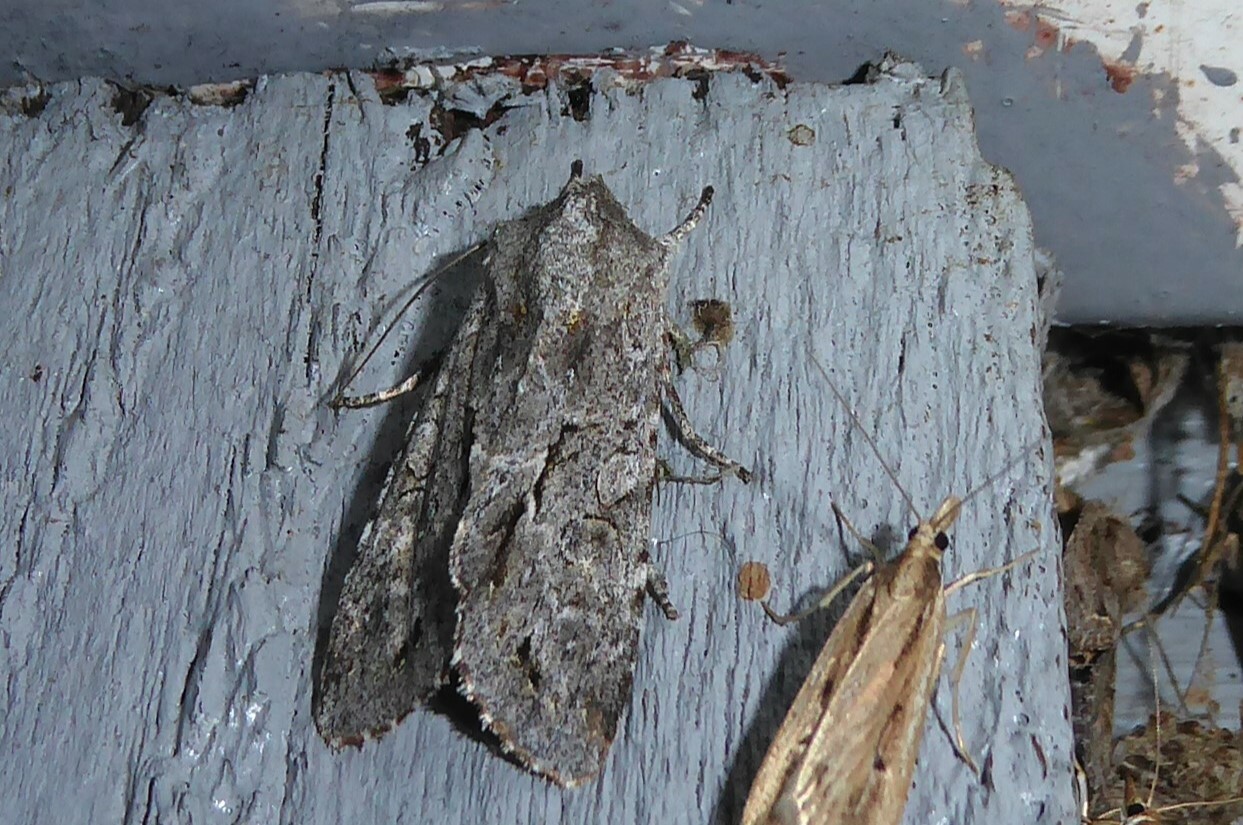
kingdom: Animalia
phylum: Arthropoda
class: Insecta
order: Lepidoptera
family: Noctuidae
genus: Ichneutica
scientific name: Ichneutica
